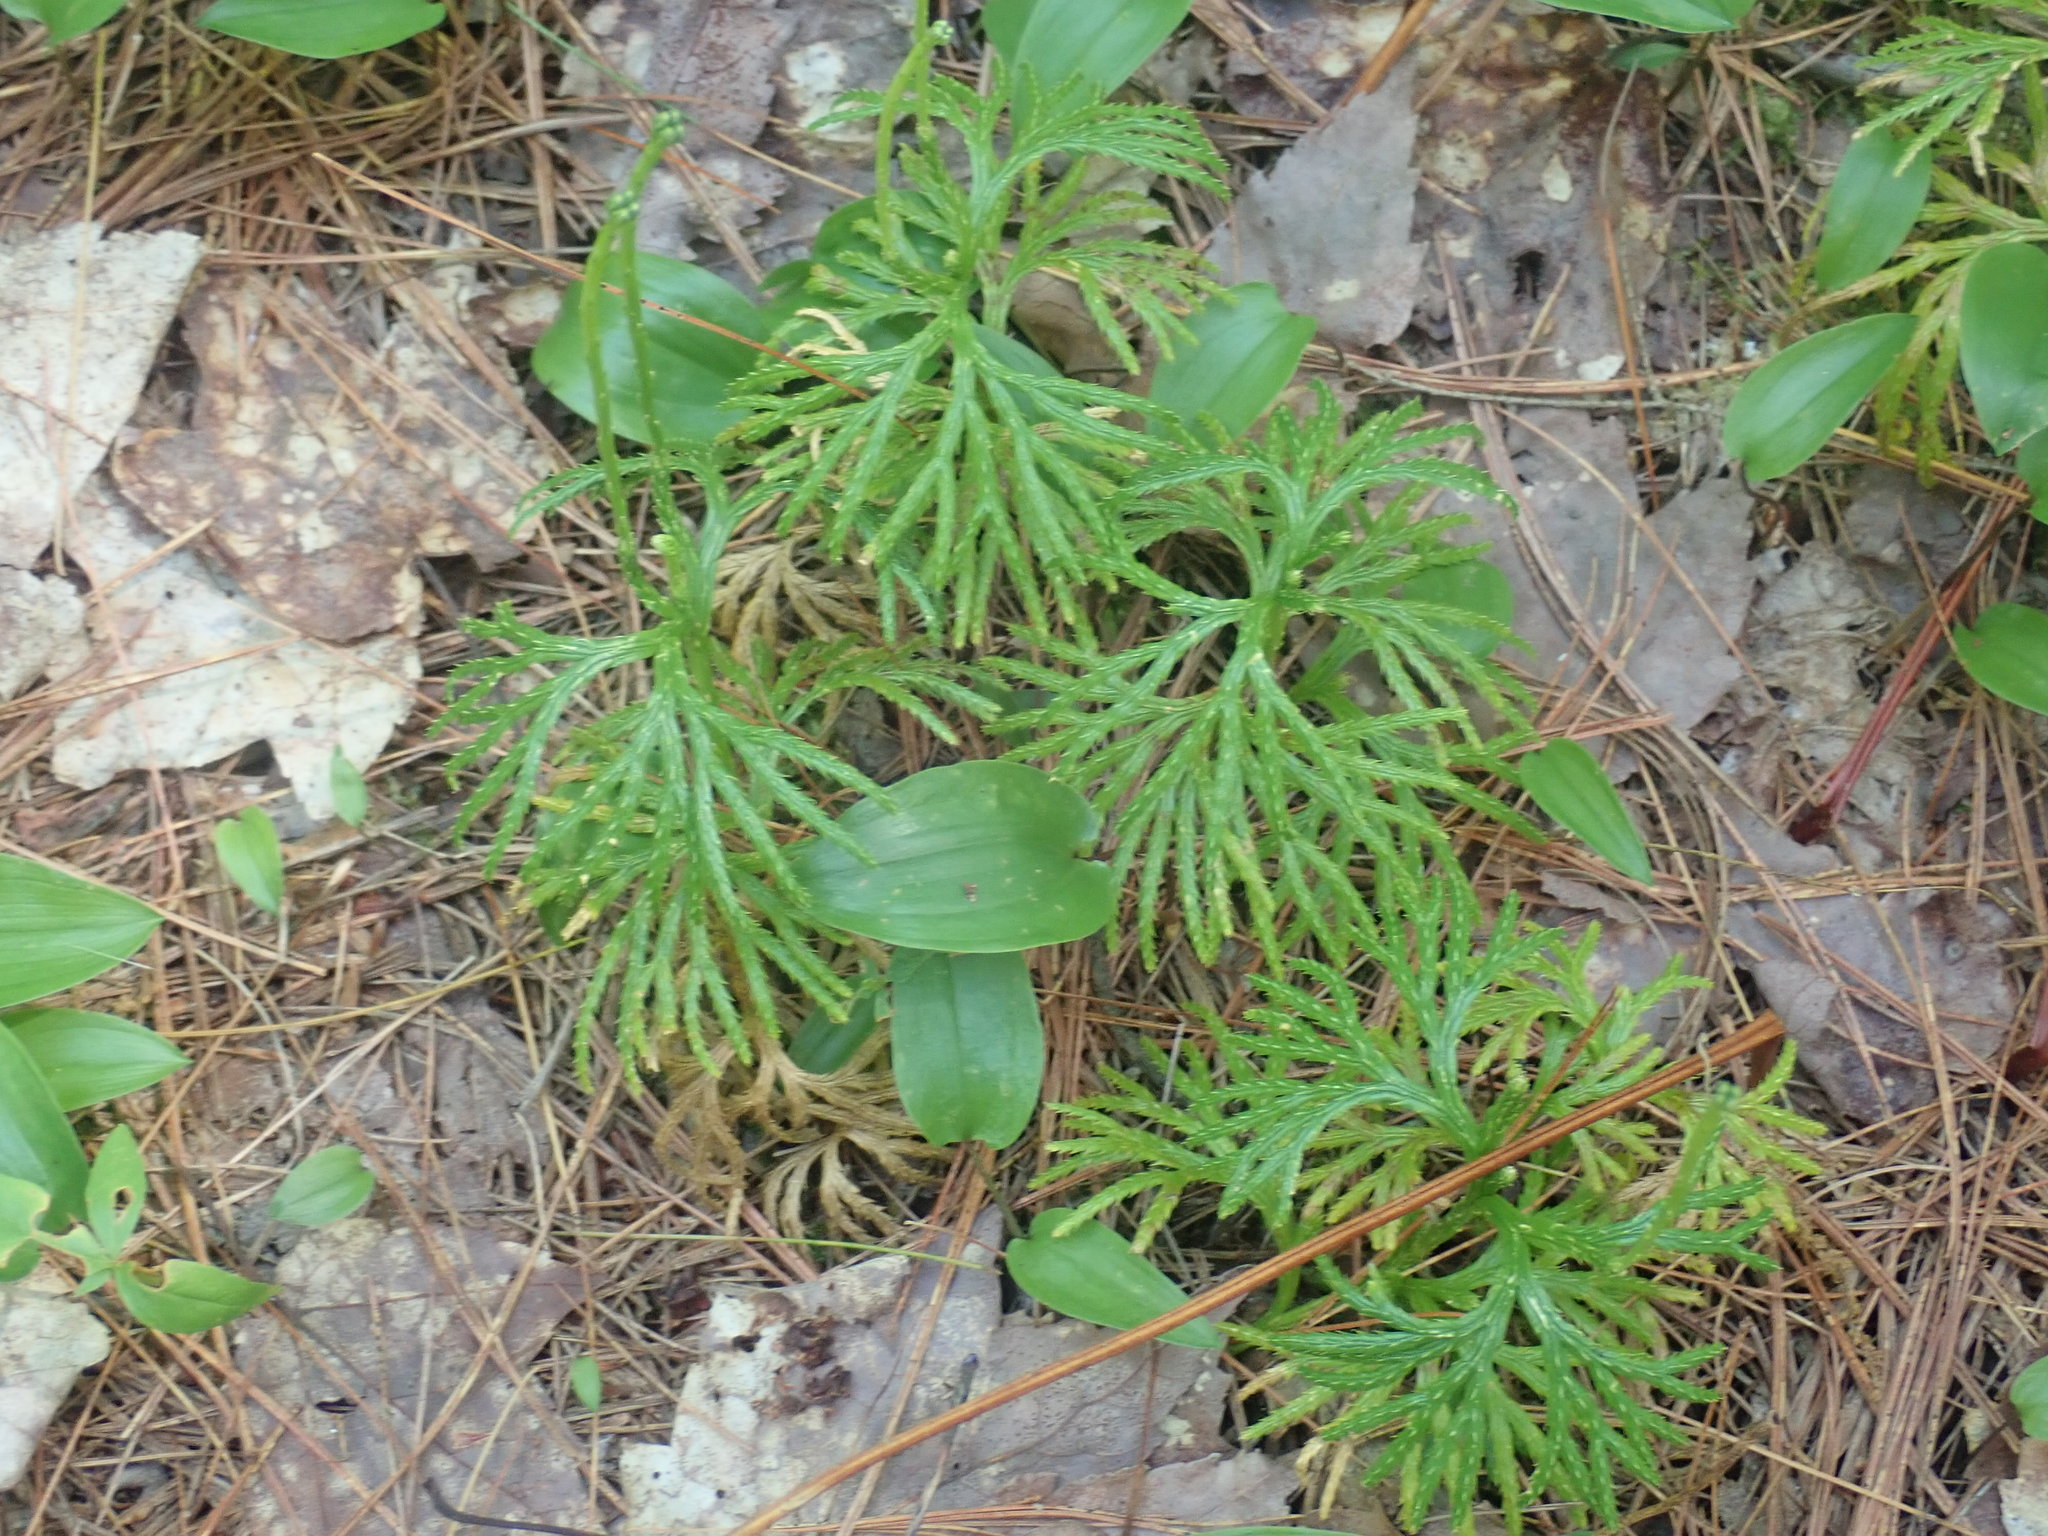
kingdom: Plantae
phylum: Tracheophyta
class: Lycopodiopsida
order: Lycopodiales
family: Lycopodiaceae
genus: Diphasiastrum
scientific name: Diphasiastrum digitatum
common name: Southern running-pine
